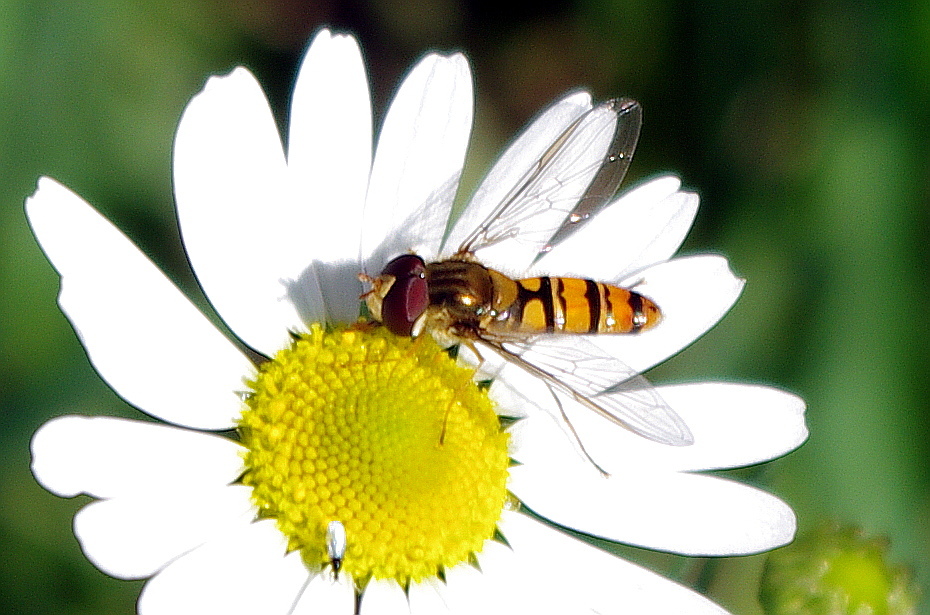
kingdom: Animalia
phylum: Arthropoda
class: Insecta
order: Diptera
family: Syrphidae
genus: Episyrphus
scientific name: Episyrphus balteatus
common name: Marmalade hoverfly
